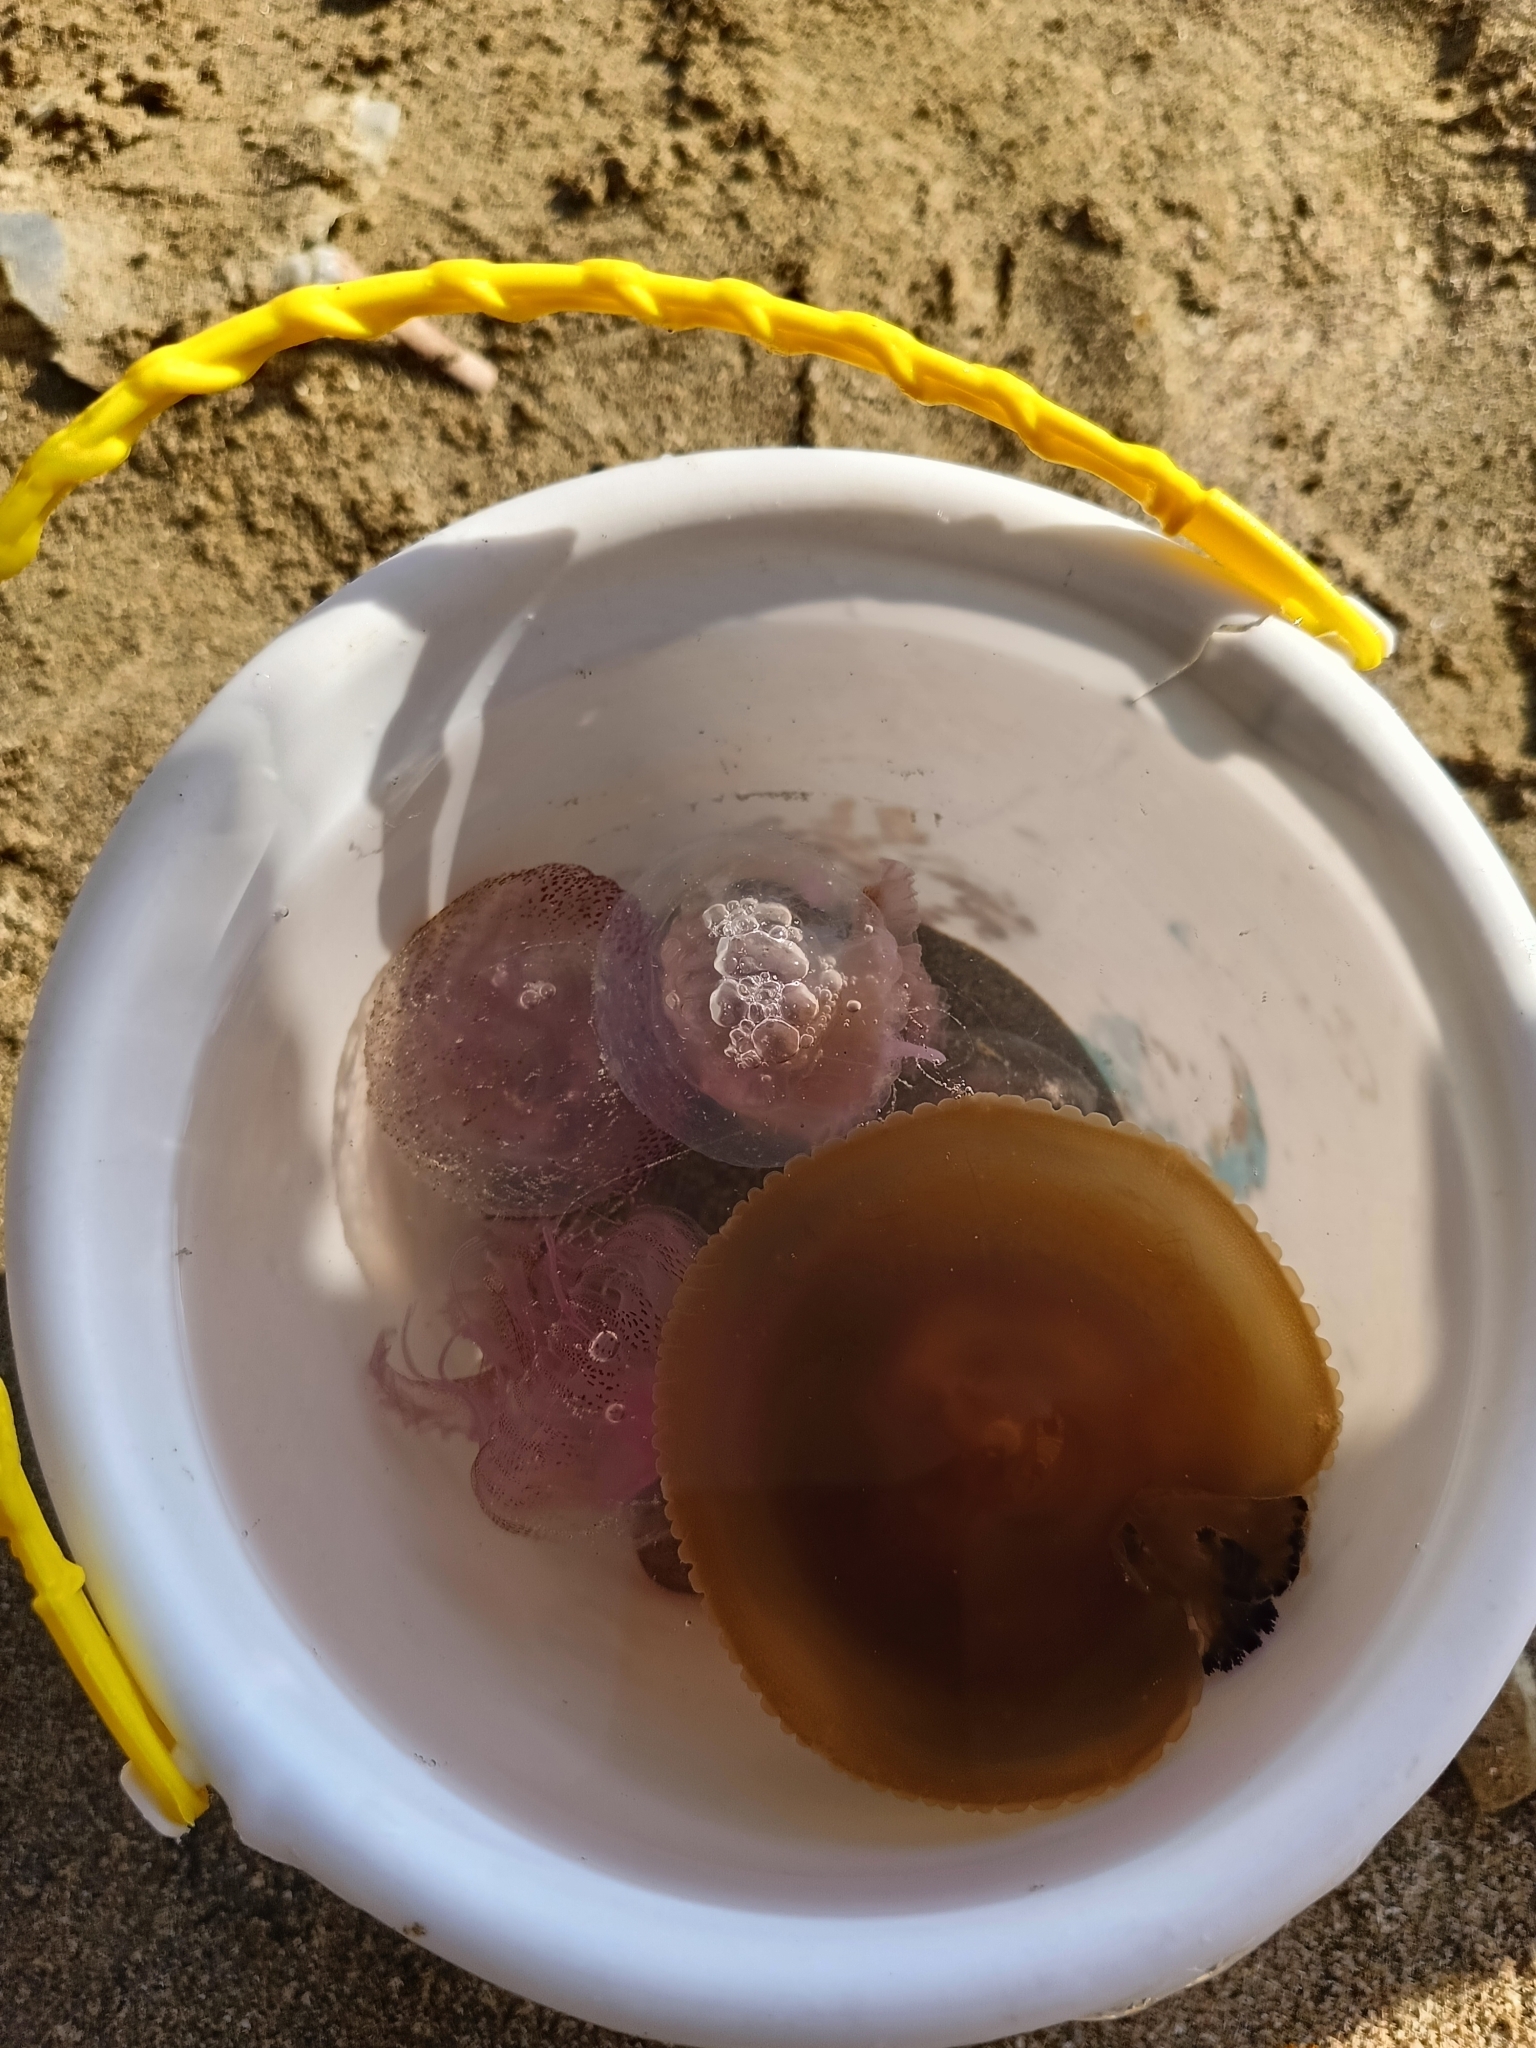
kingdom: Animalia
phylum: Cnidaria
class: Scyphozoa
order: Semaeostomeae
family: Pelagiidae
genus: Pelagia
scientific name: Pelagia noctiluca
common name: Mauve stinger
